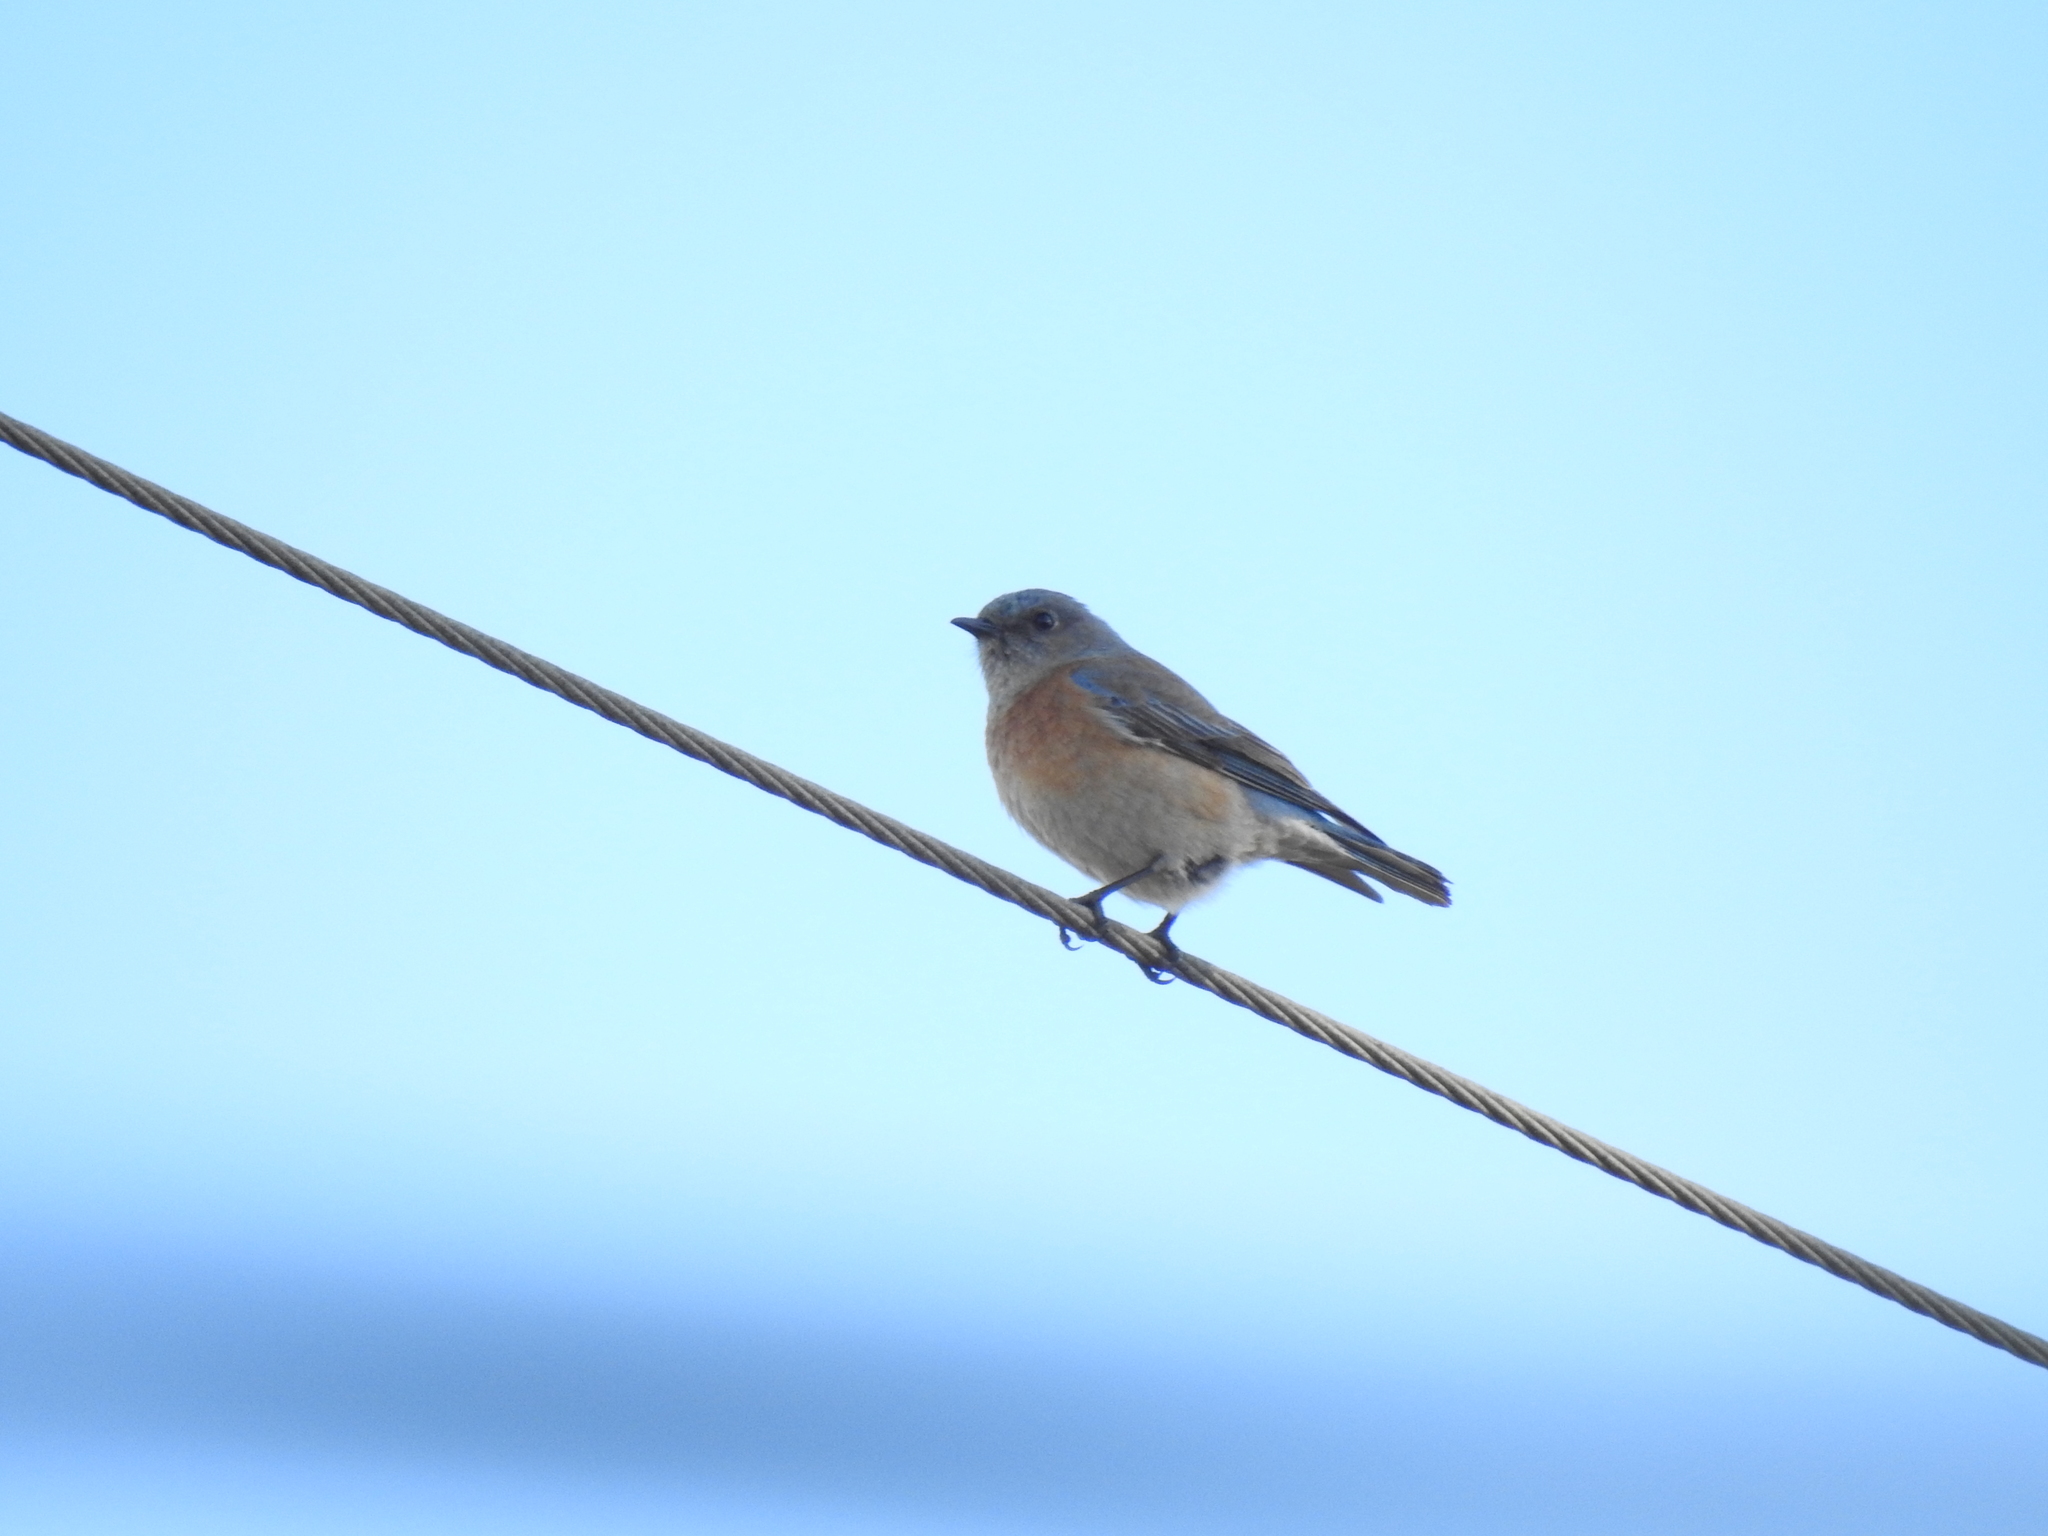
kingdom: Animalia
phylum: Chordata
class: Aves
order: Passeriformes
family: Turdidae
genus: Sialia
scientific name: Sialia mexicana
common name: Western bluebird
